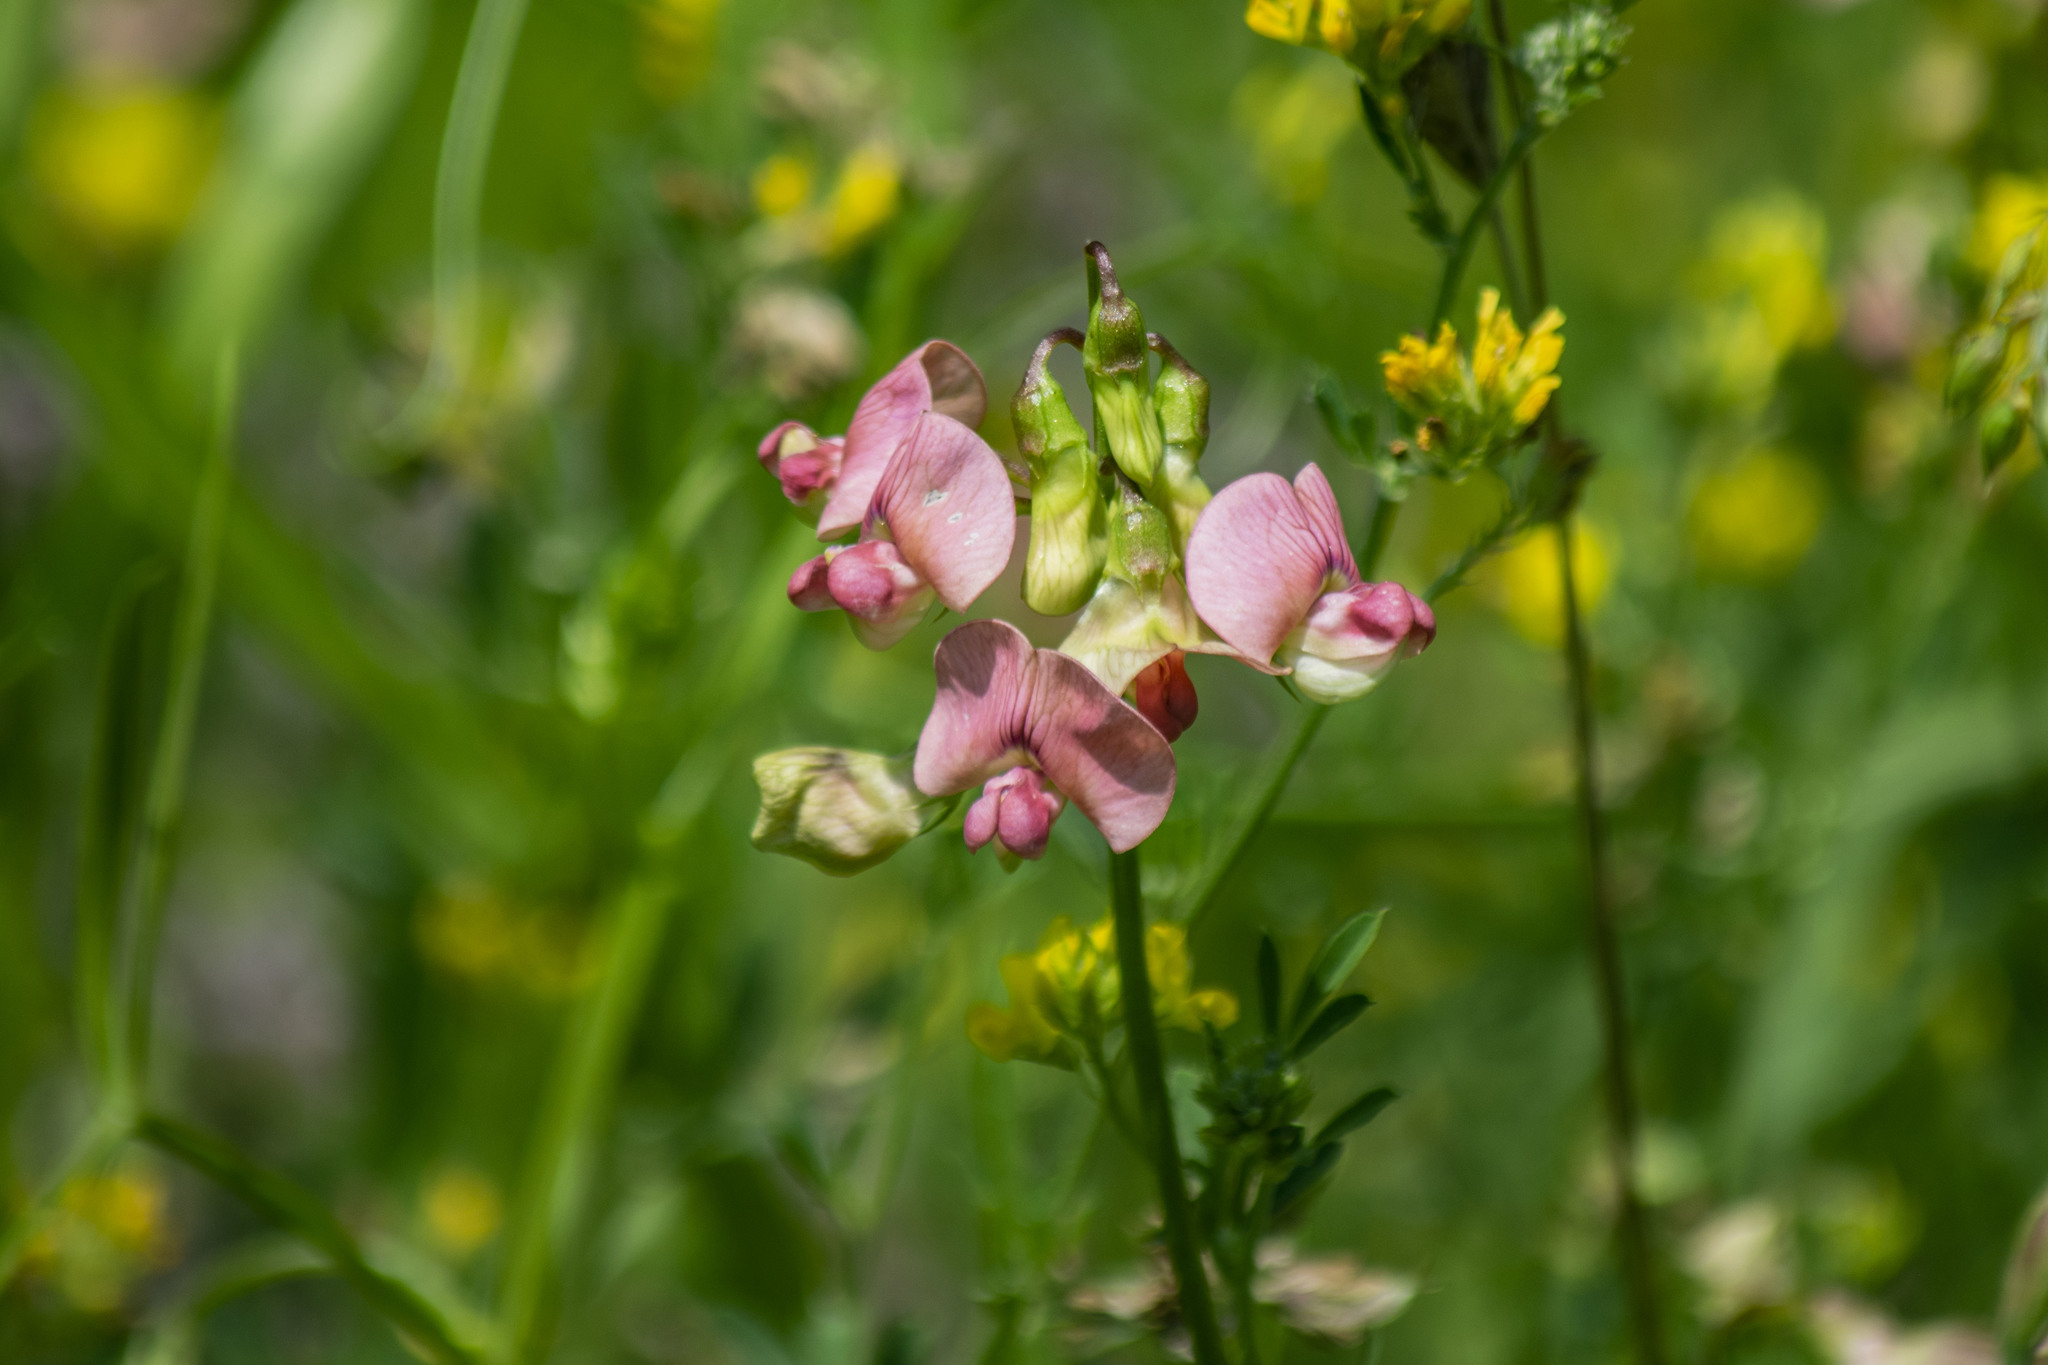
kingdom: Plantae
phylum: Tracheophyta
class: Magnoliopsida
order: Fabales
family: Fabaceae
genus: Lathyrus
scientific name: Lathyrus sylvestris
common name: Flat pea
